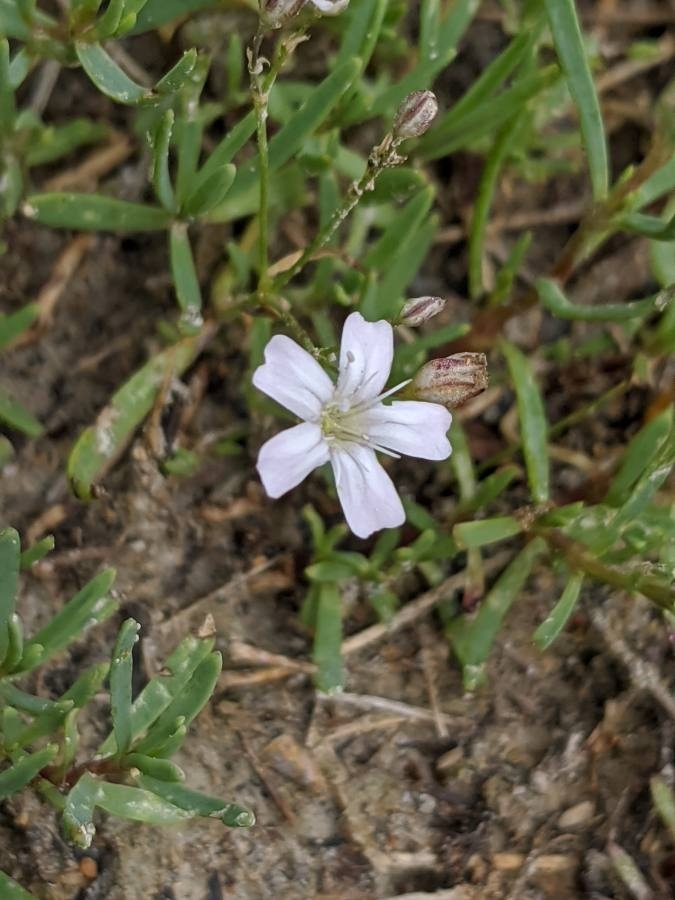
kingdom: Plantae
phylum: Tracheophyta
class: Magnoliopsida
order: Caryophyllales
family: Caryophyllaceae
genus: Gypsophila
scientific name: Gypsophila repens
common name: Creeping baby's-breath
